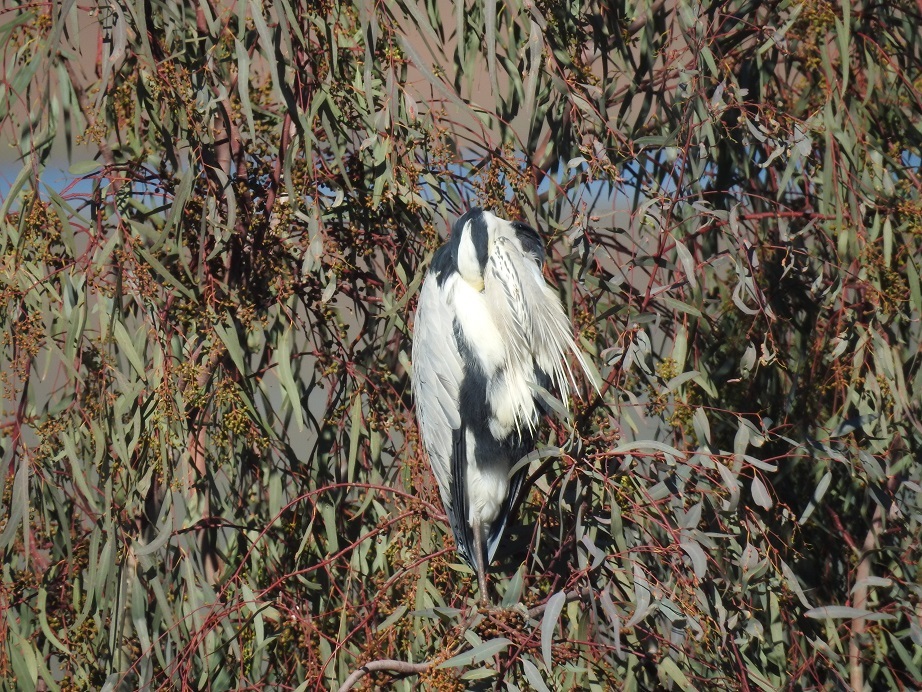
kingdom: Animalia
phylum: Chordata
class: Aves
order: Pelecaniformes
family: Ardeidae
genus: Ardea
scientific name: Ardea cinerea
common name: Grey heron
